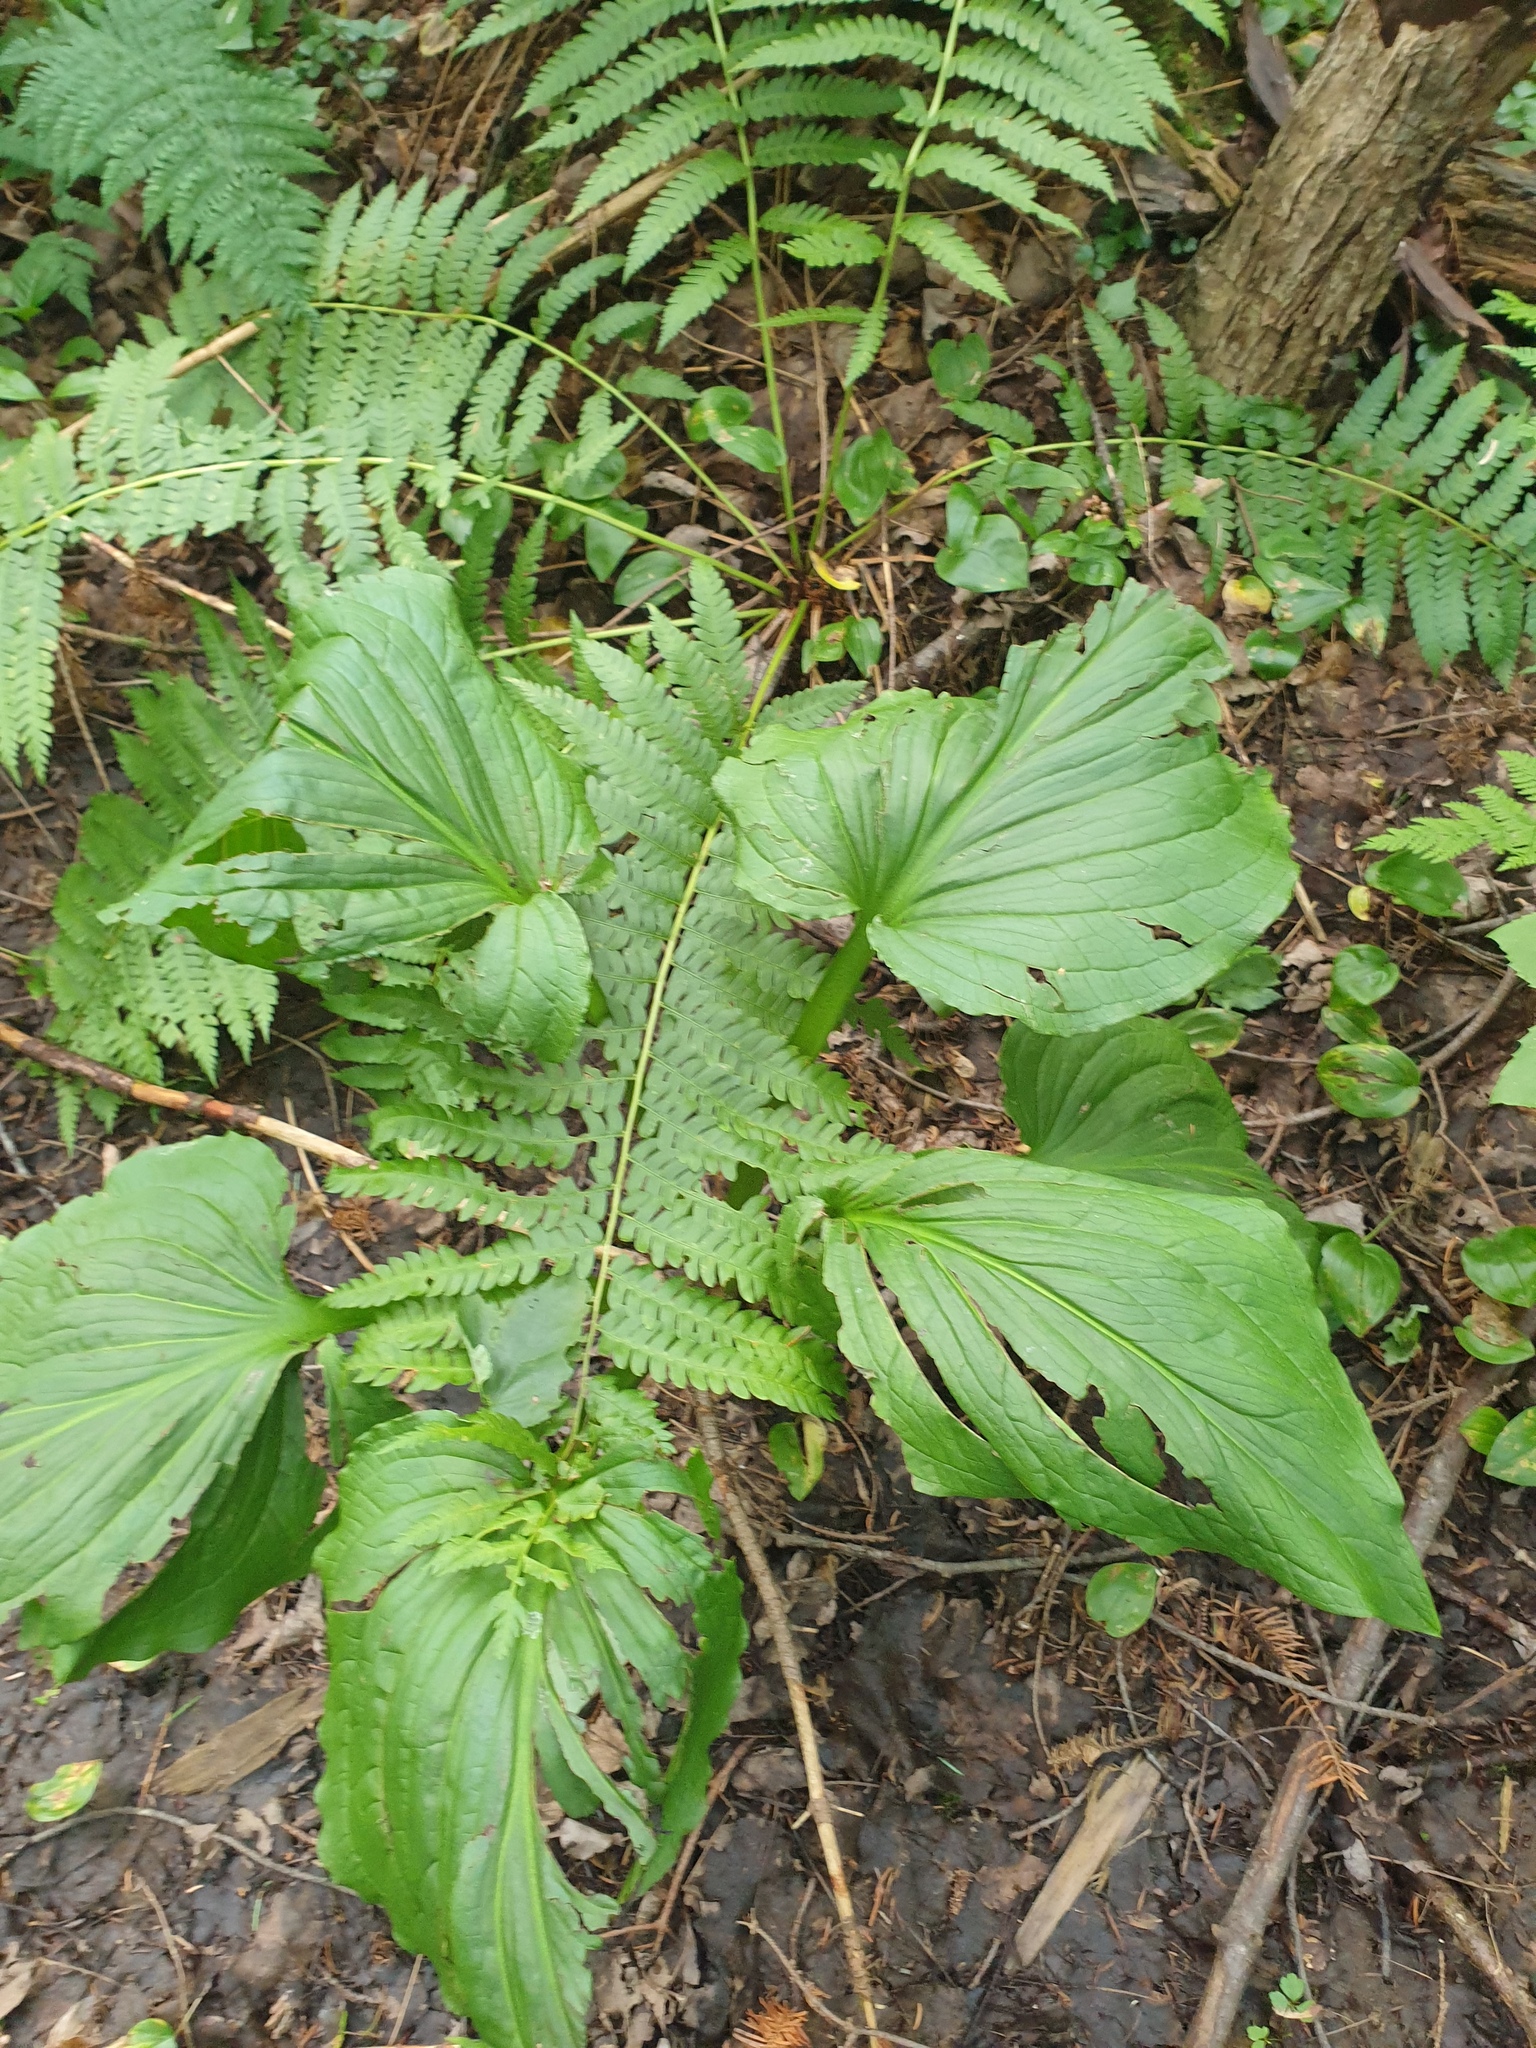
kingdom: Plantae
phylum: Tracheophyta
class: Liliopsida
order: Alismatales
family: Araceae
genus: Symplocarpus
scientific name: Symplocarpus foetidus
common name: Eastern skunk cabbage
